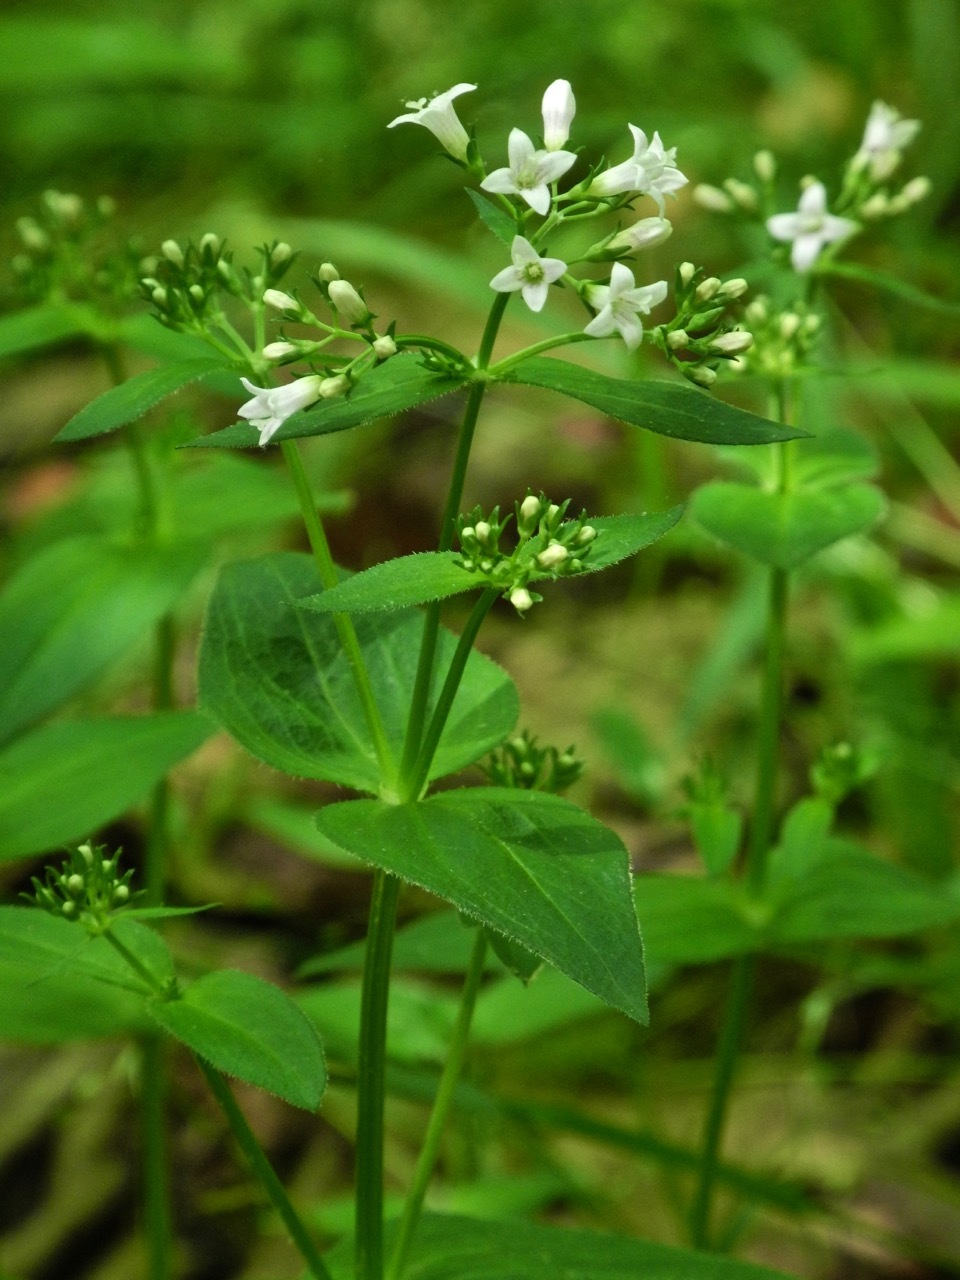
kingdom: Plantae
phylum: Tracheophyta
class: Magnoliopsida
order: Gentianales
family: Rubiaceae
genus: Houstonia
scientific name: Houstonia purpurea
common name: Summer bluet
